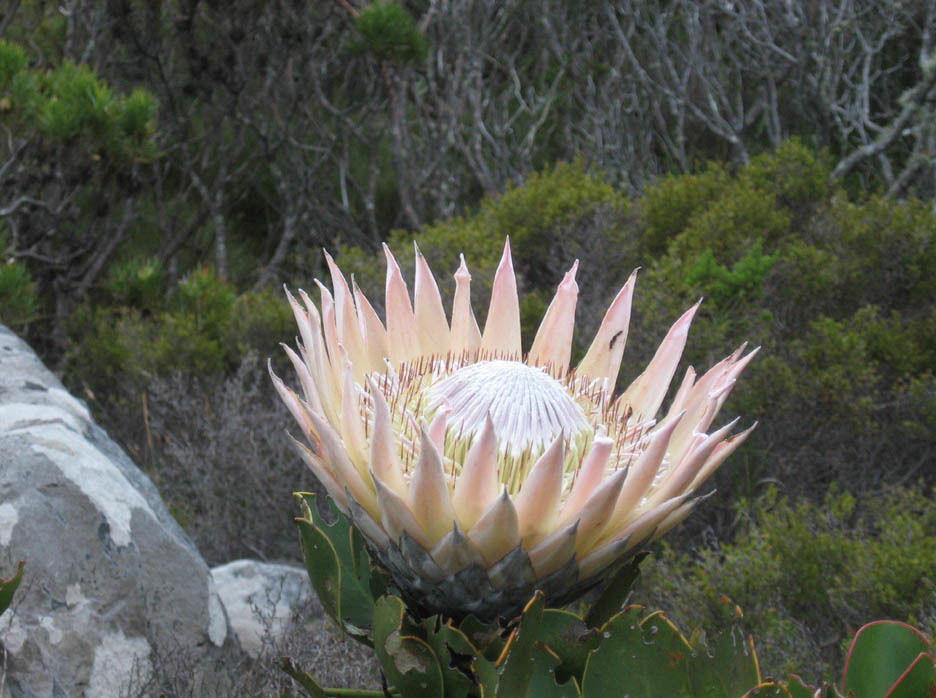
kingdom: Plantae
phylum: Tracheophyta
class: Magnoliopsida
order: Proteales
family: Proteaceae
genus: Protea
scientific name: Protea cynaroides
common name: King protea
